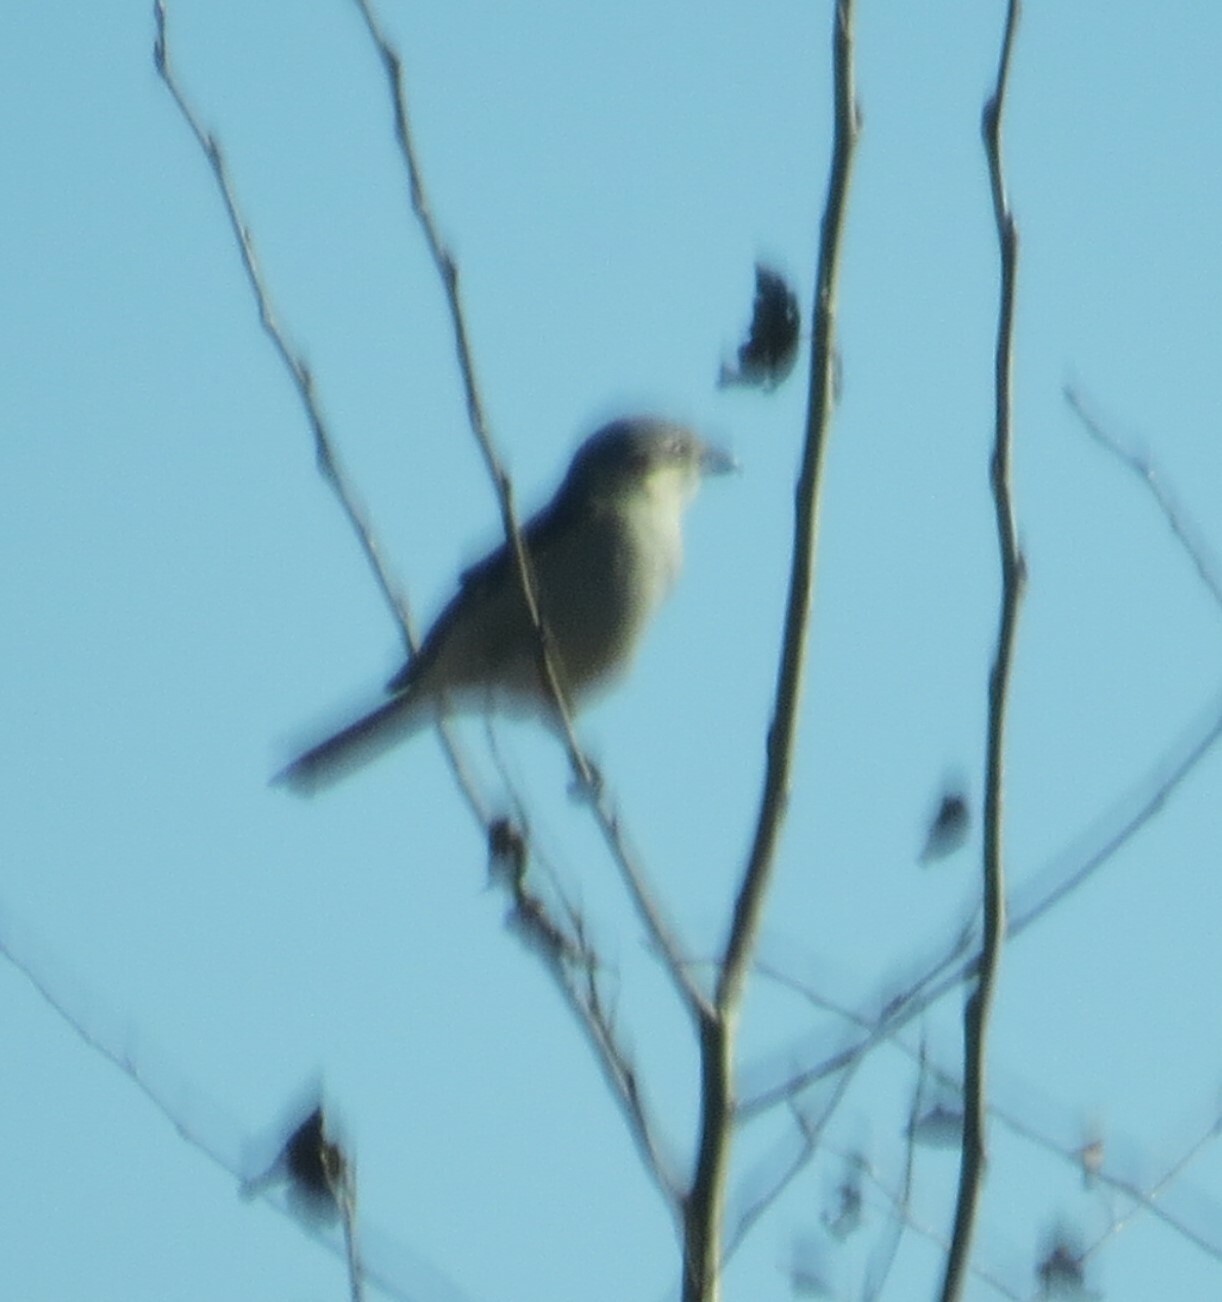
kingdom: Animalia
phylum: Chordata
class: Aves
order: Passeriformes
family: Laniidae
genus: Lanius
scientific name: Lanius borealis
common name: Northern shrike
